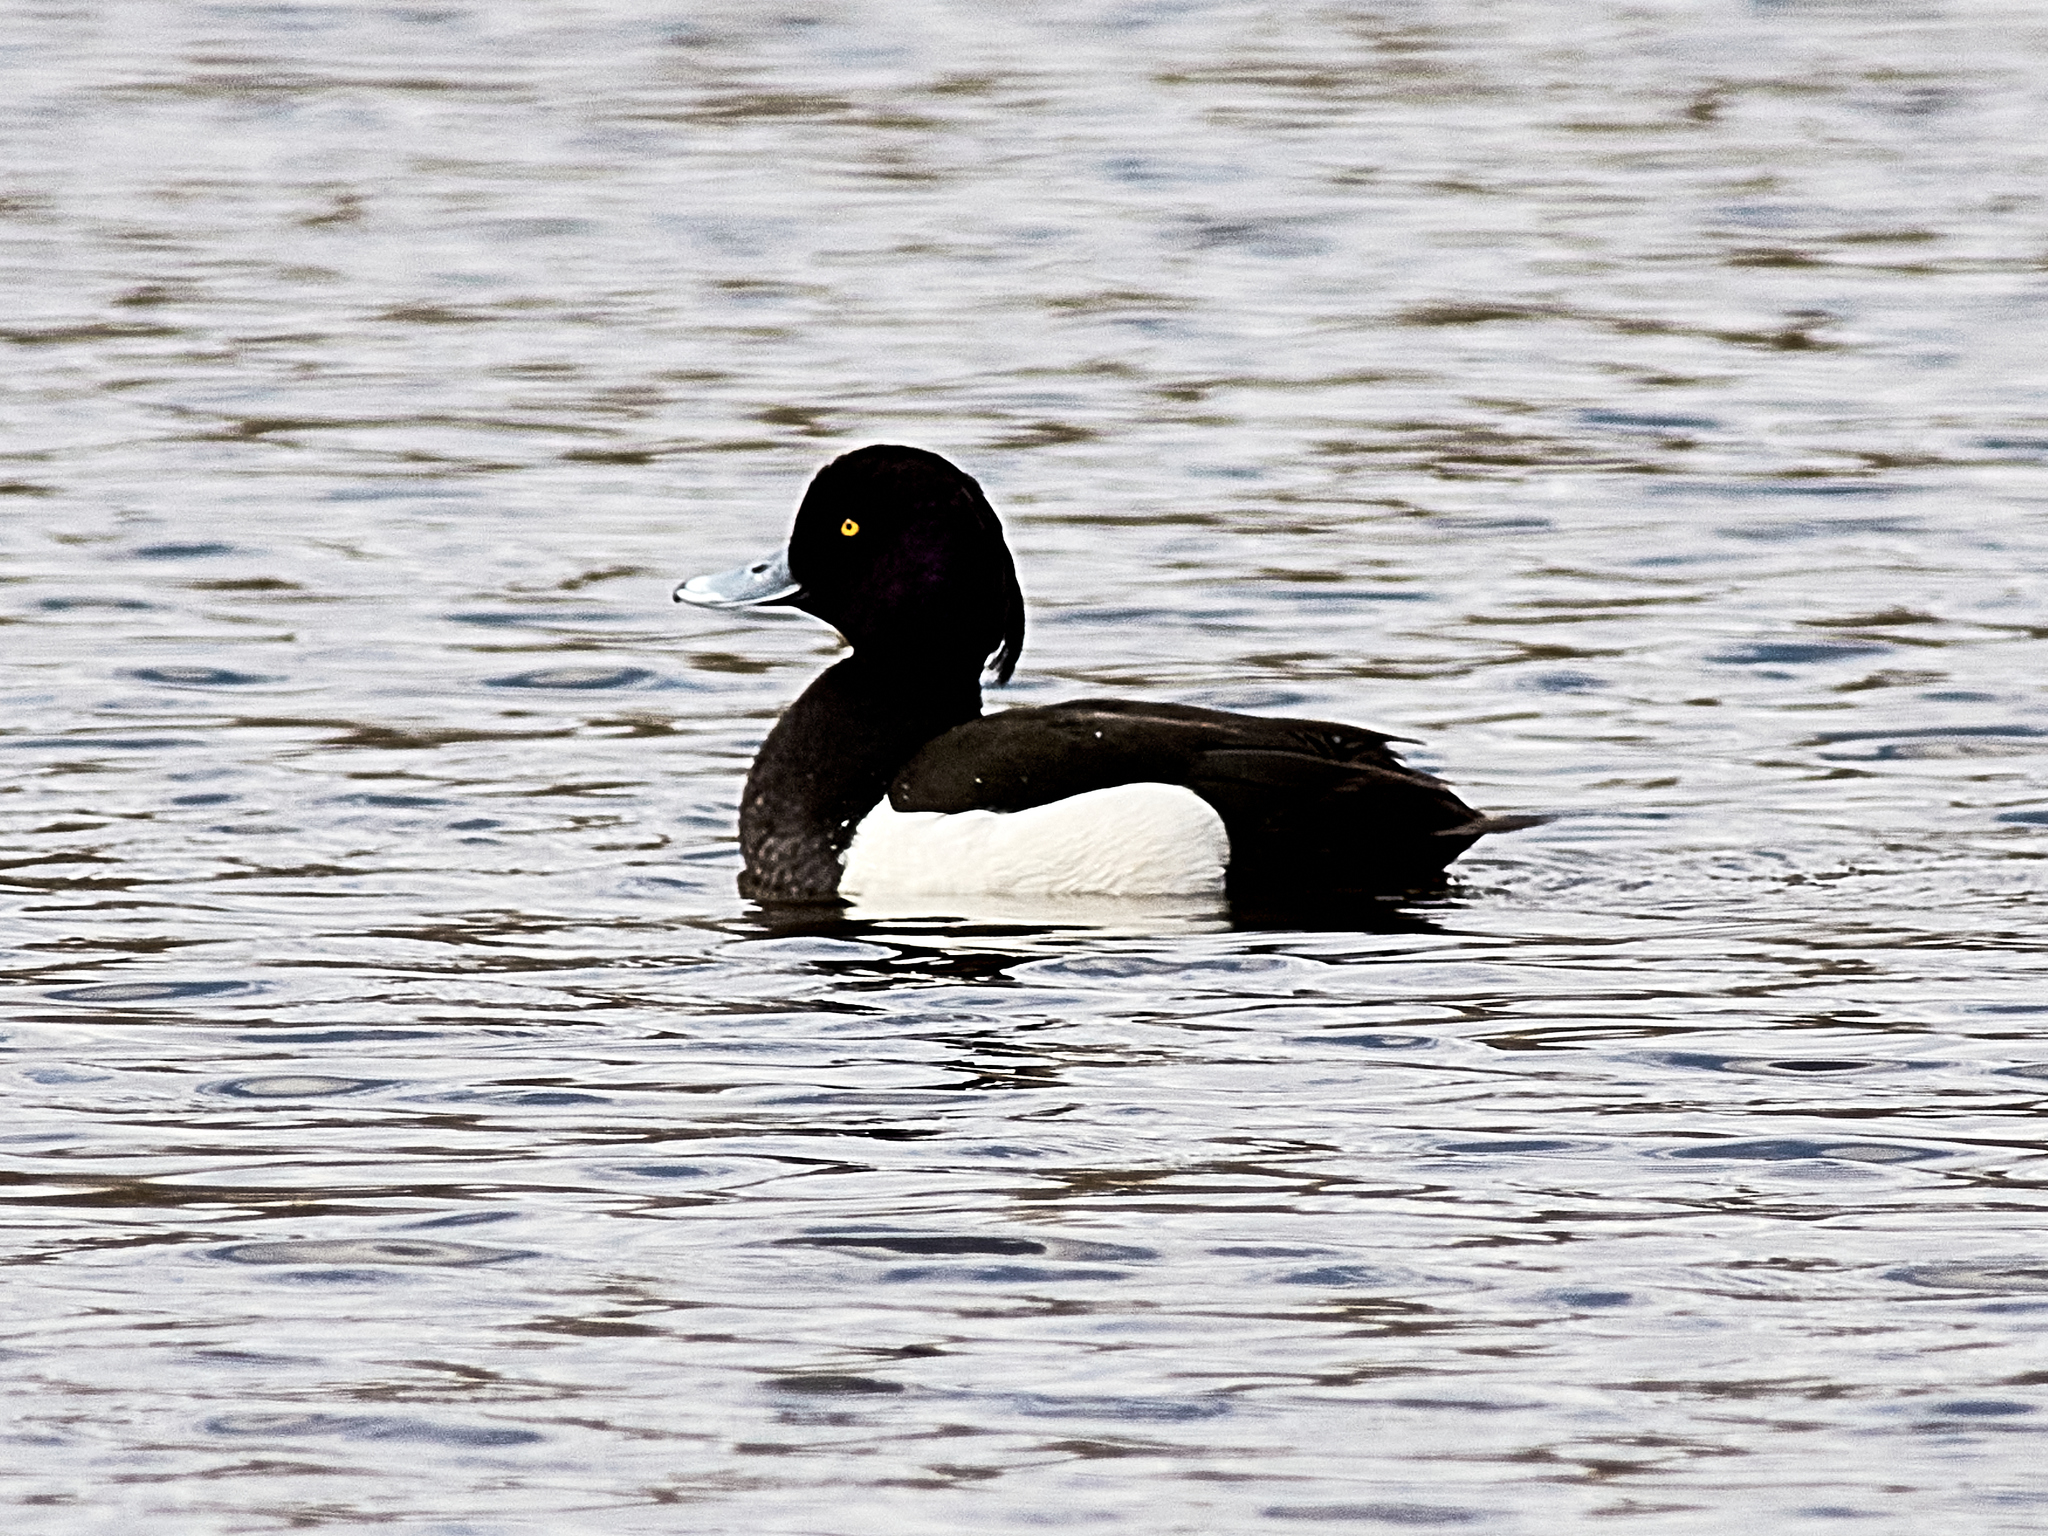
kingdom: Animalia
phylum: Chordata
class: Aves
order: Anseriformes
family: Anatidae
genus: Aythya
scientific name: Aythya fuligula
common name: Tufted duck
